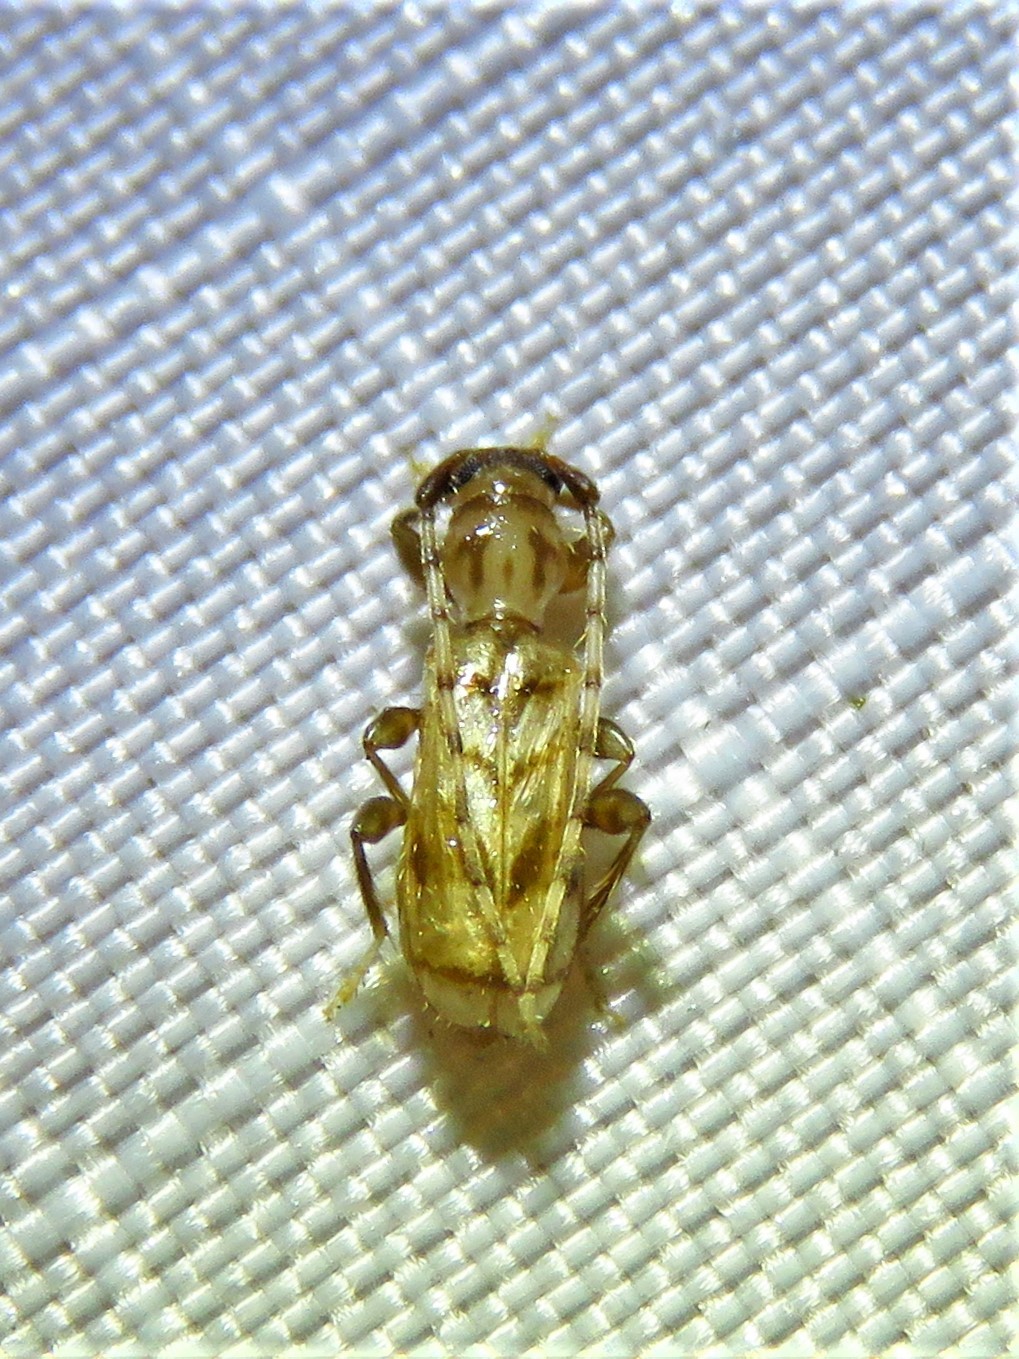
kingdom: Animalia
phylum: Arthropoda
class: Insecta
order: Coleoptera
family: Cerambycidae
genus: Obrium
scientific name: Obrium maculatum
